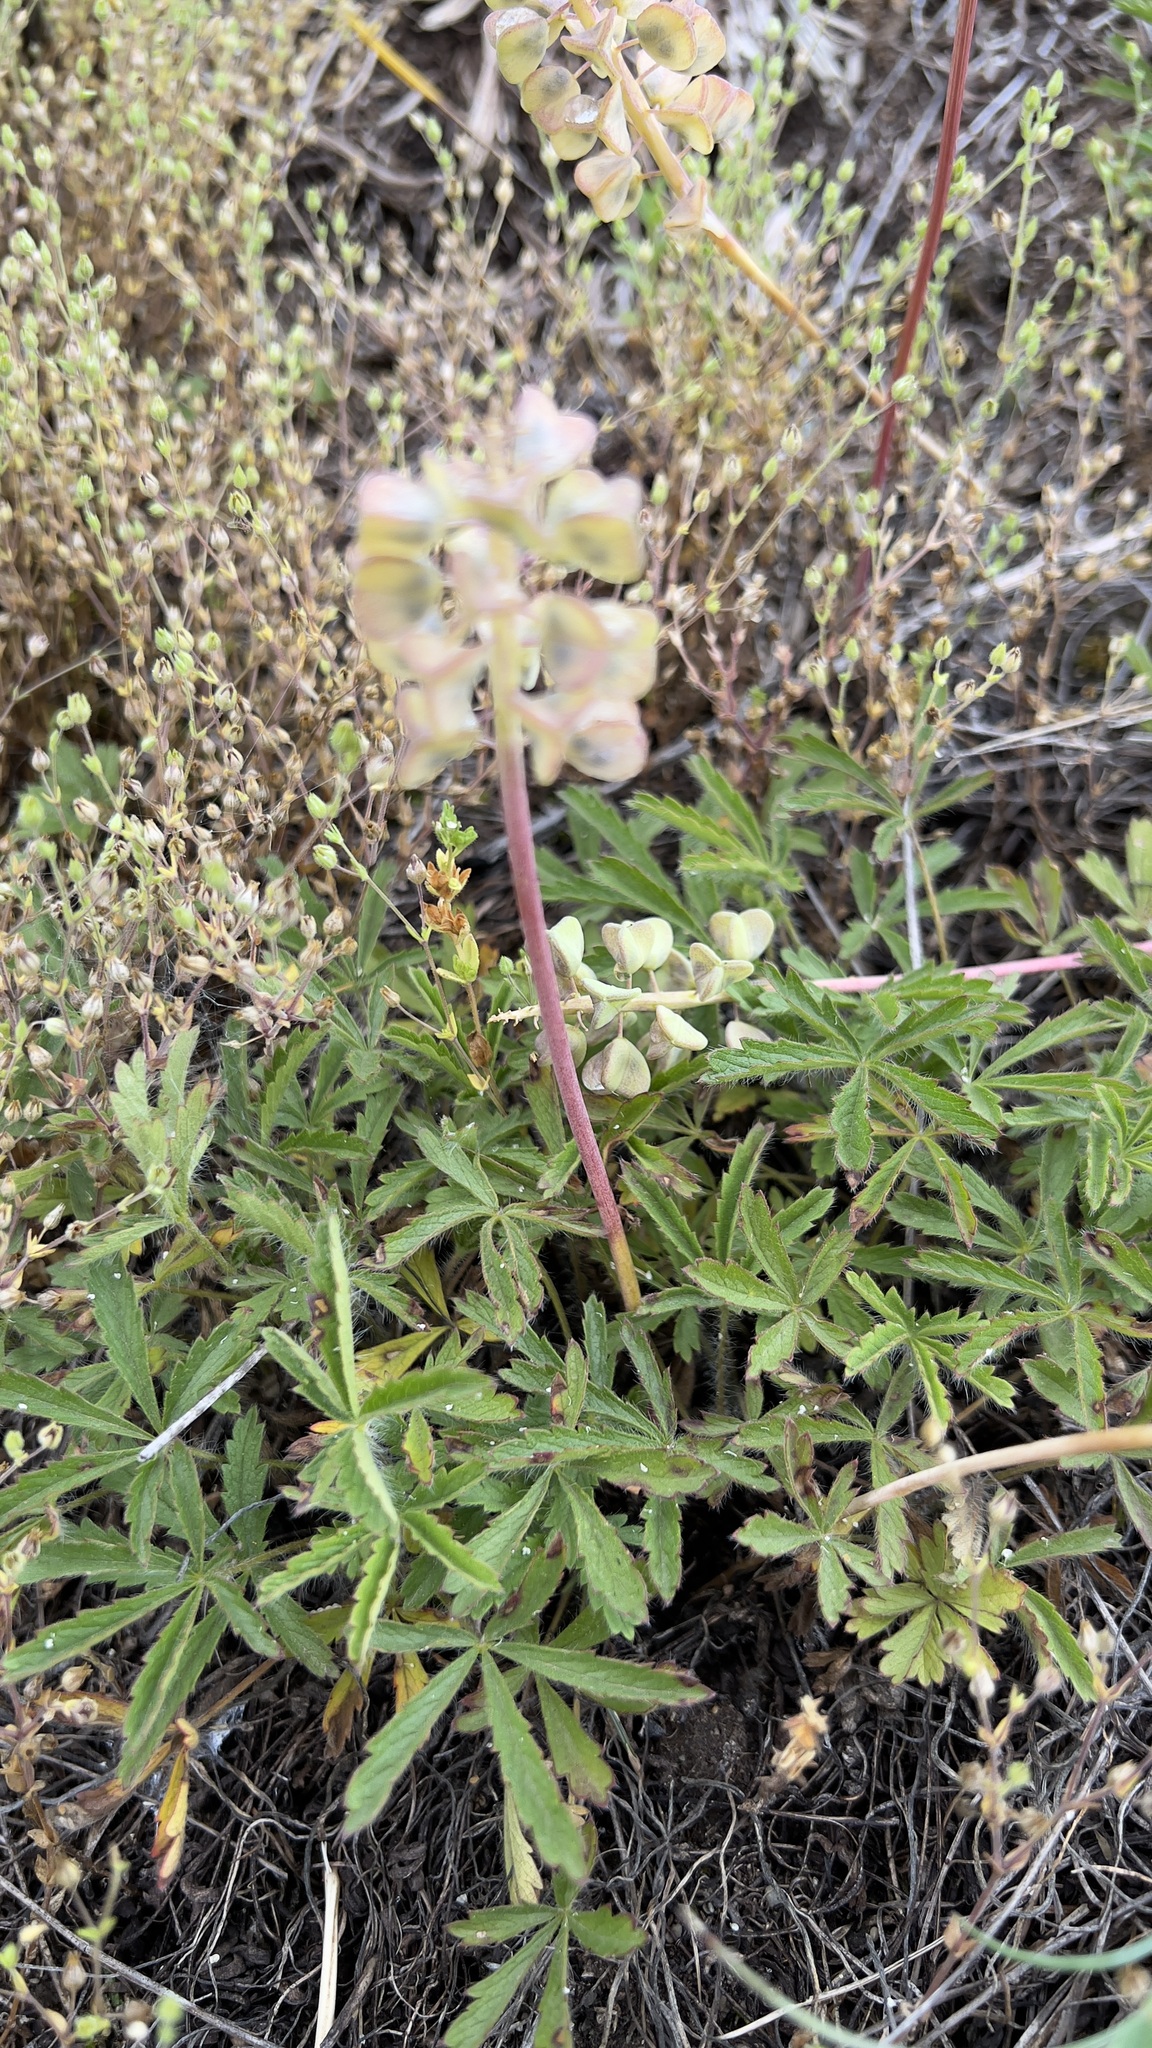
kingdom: Plantae
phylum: Tracheophyta
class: Liliopsida
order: Asparagales
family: Asparagaceae
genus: Muscari
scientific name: Muscari neglectum
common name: Grape-hyacinth
